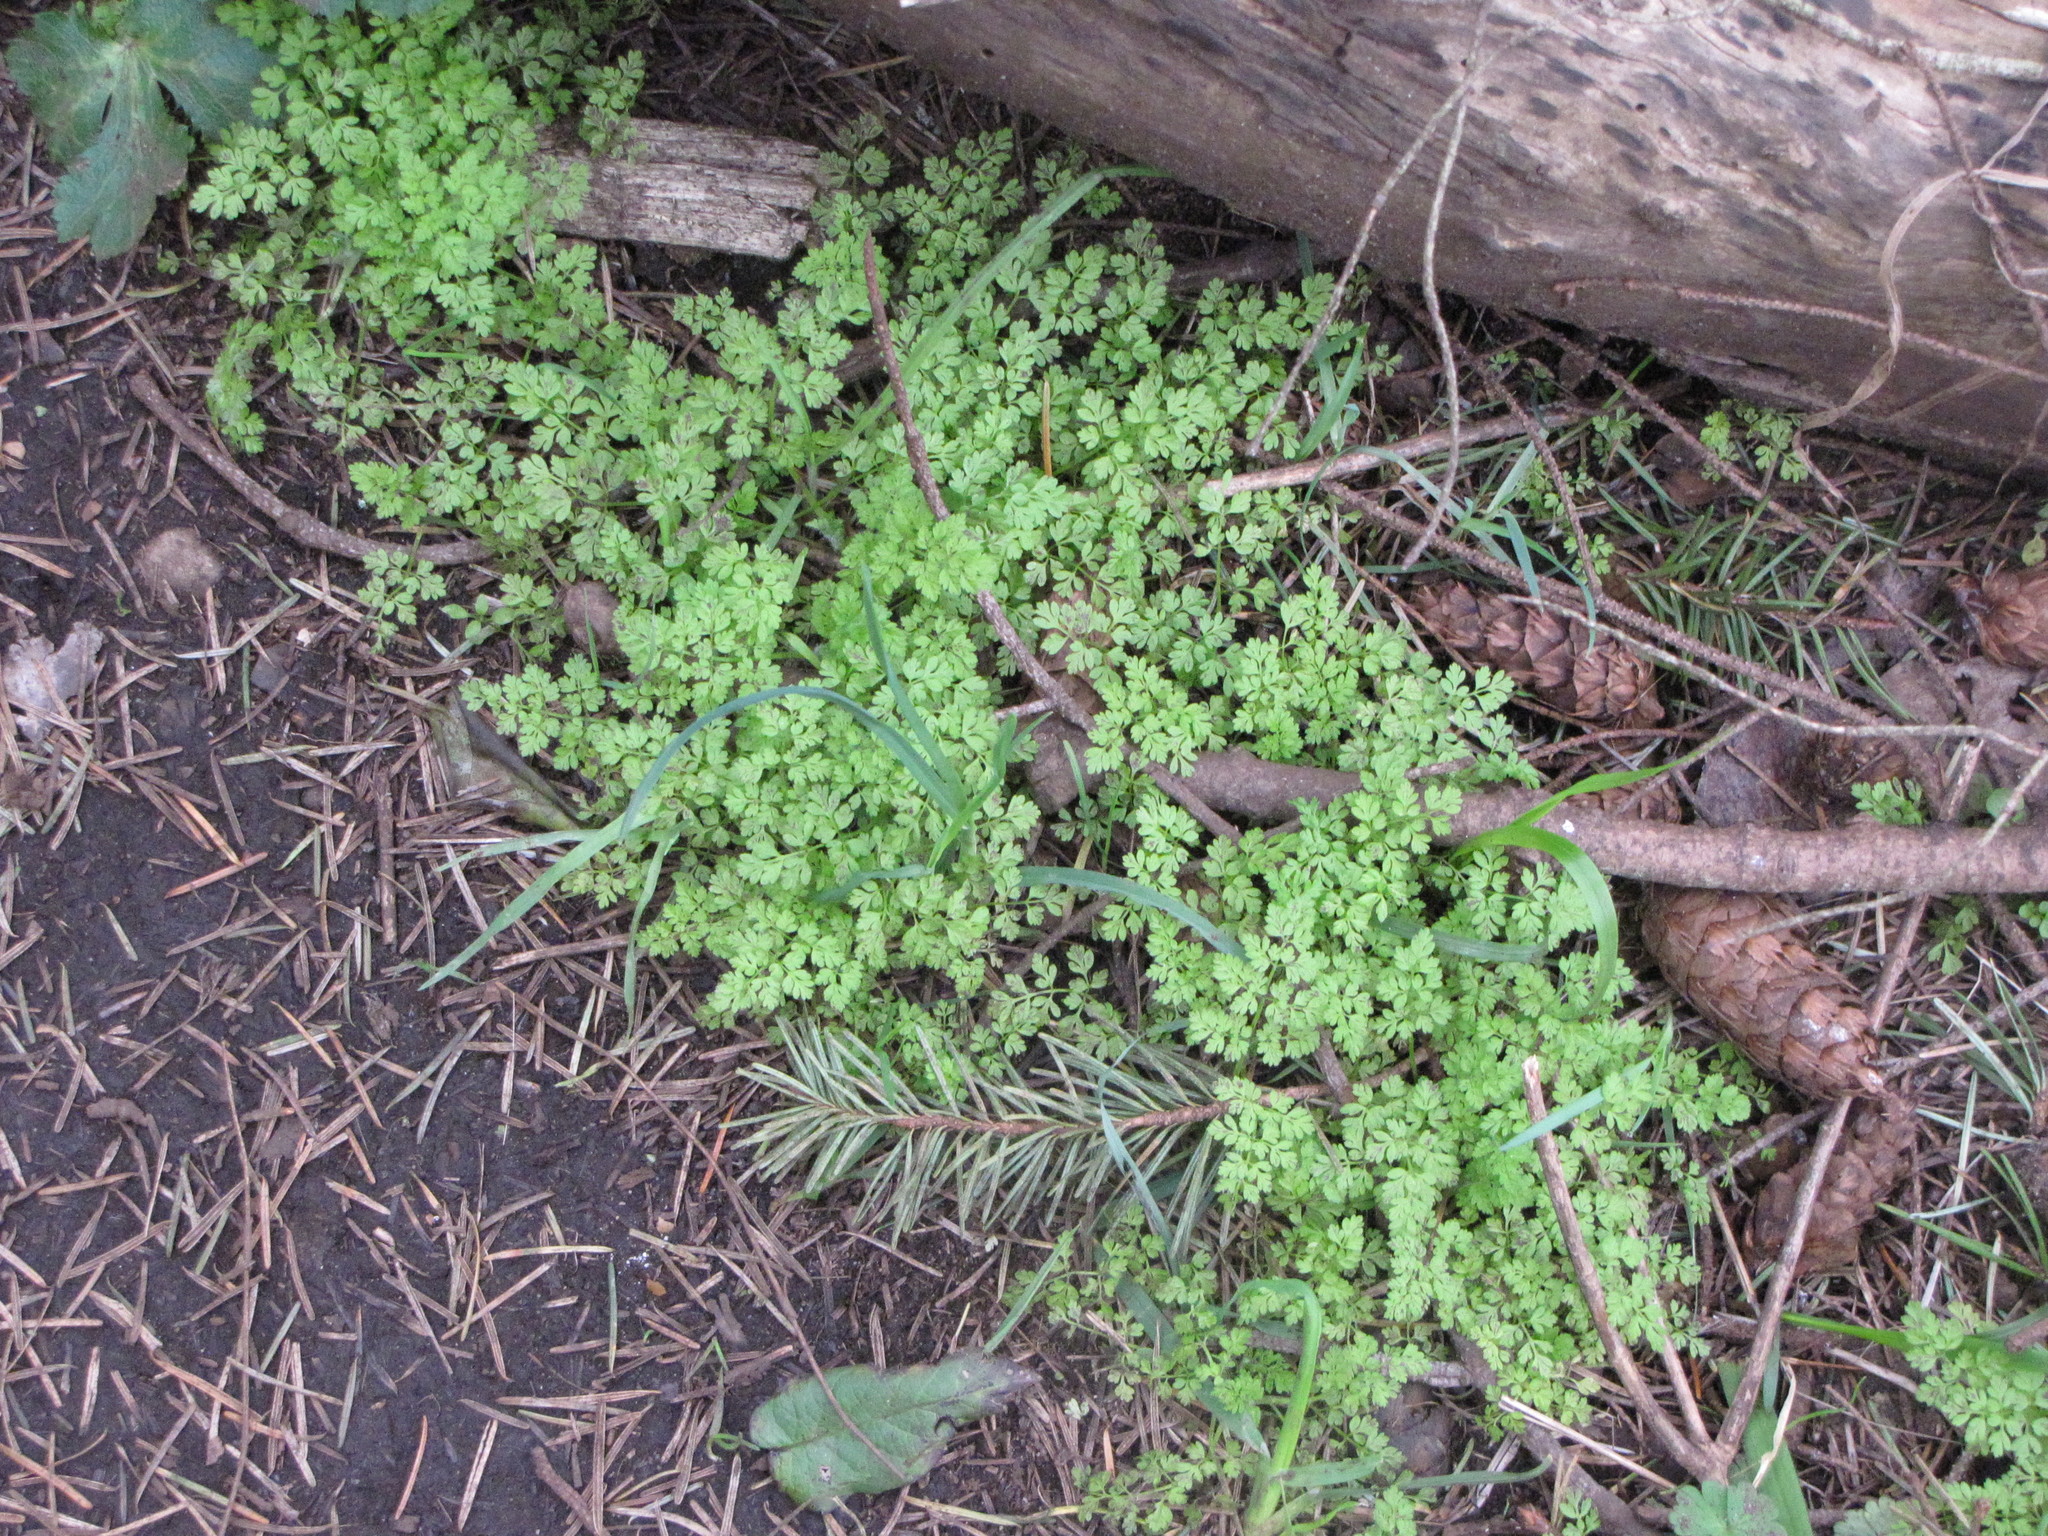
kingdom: Plantae
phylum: Tracheophyta
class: Magnoliopsida
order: Apiales
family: Apiaceae
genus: Anthriscus
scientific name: Anthriscus caucalis
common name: Bur chervil
